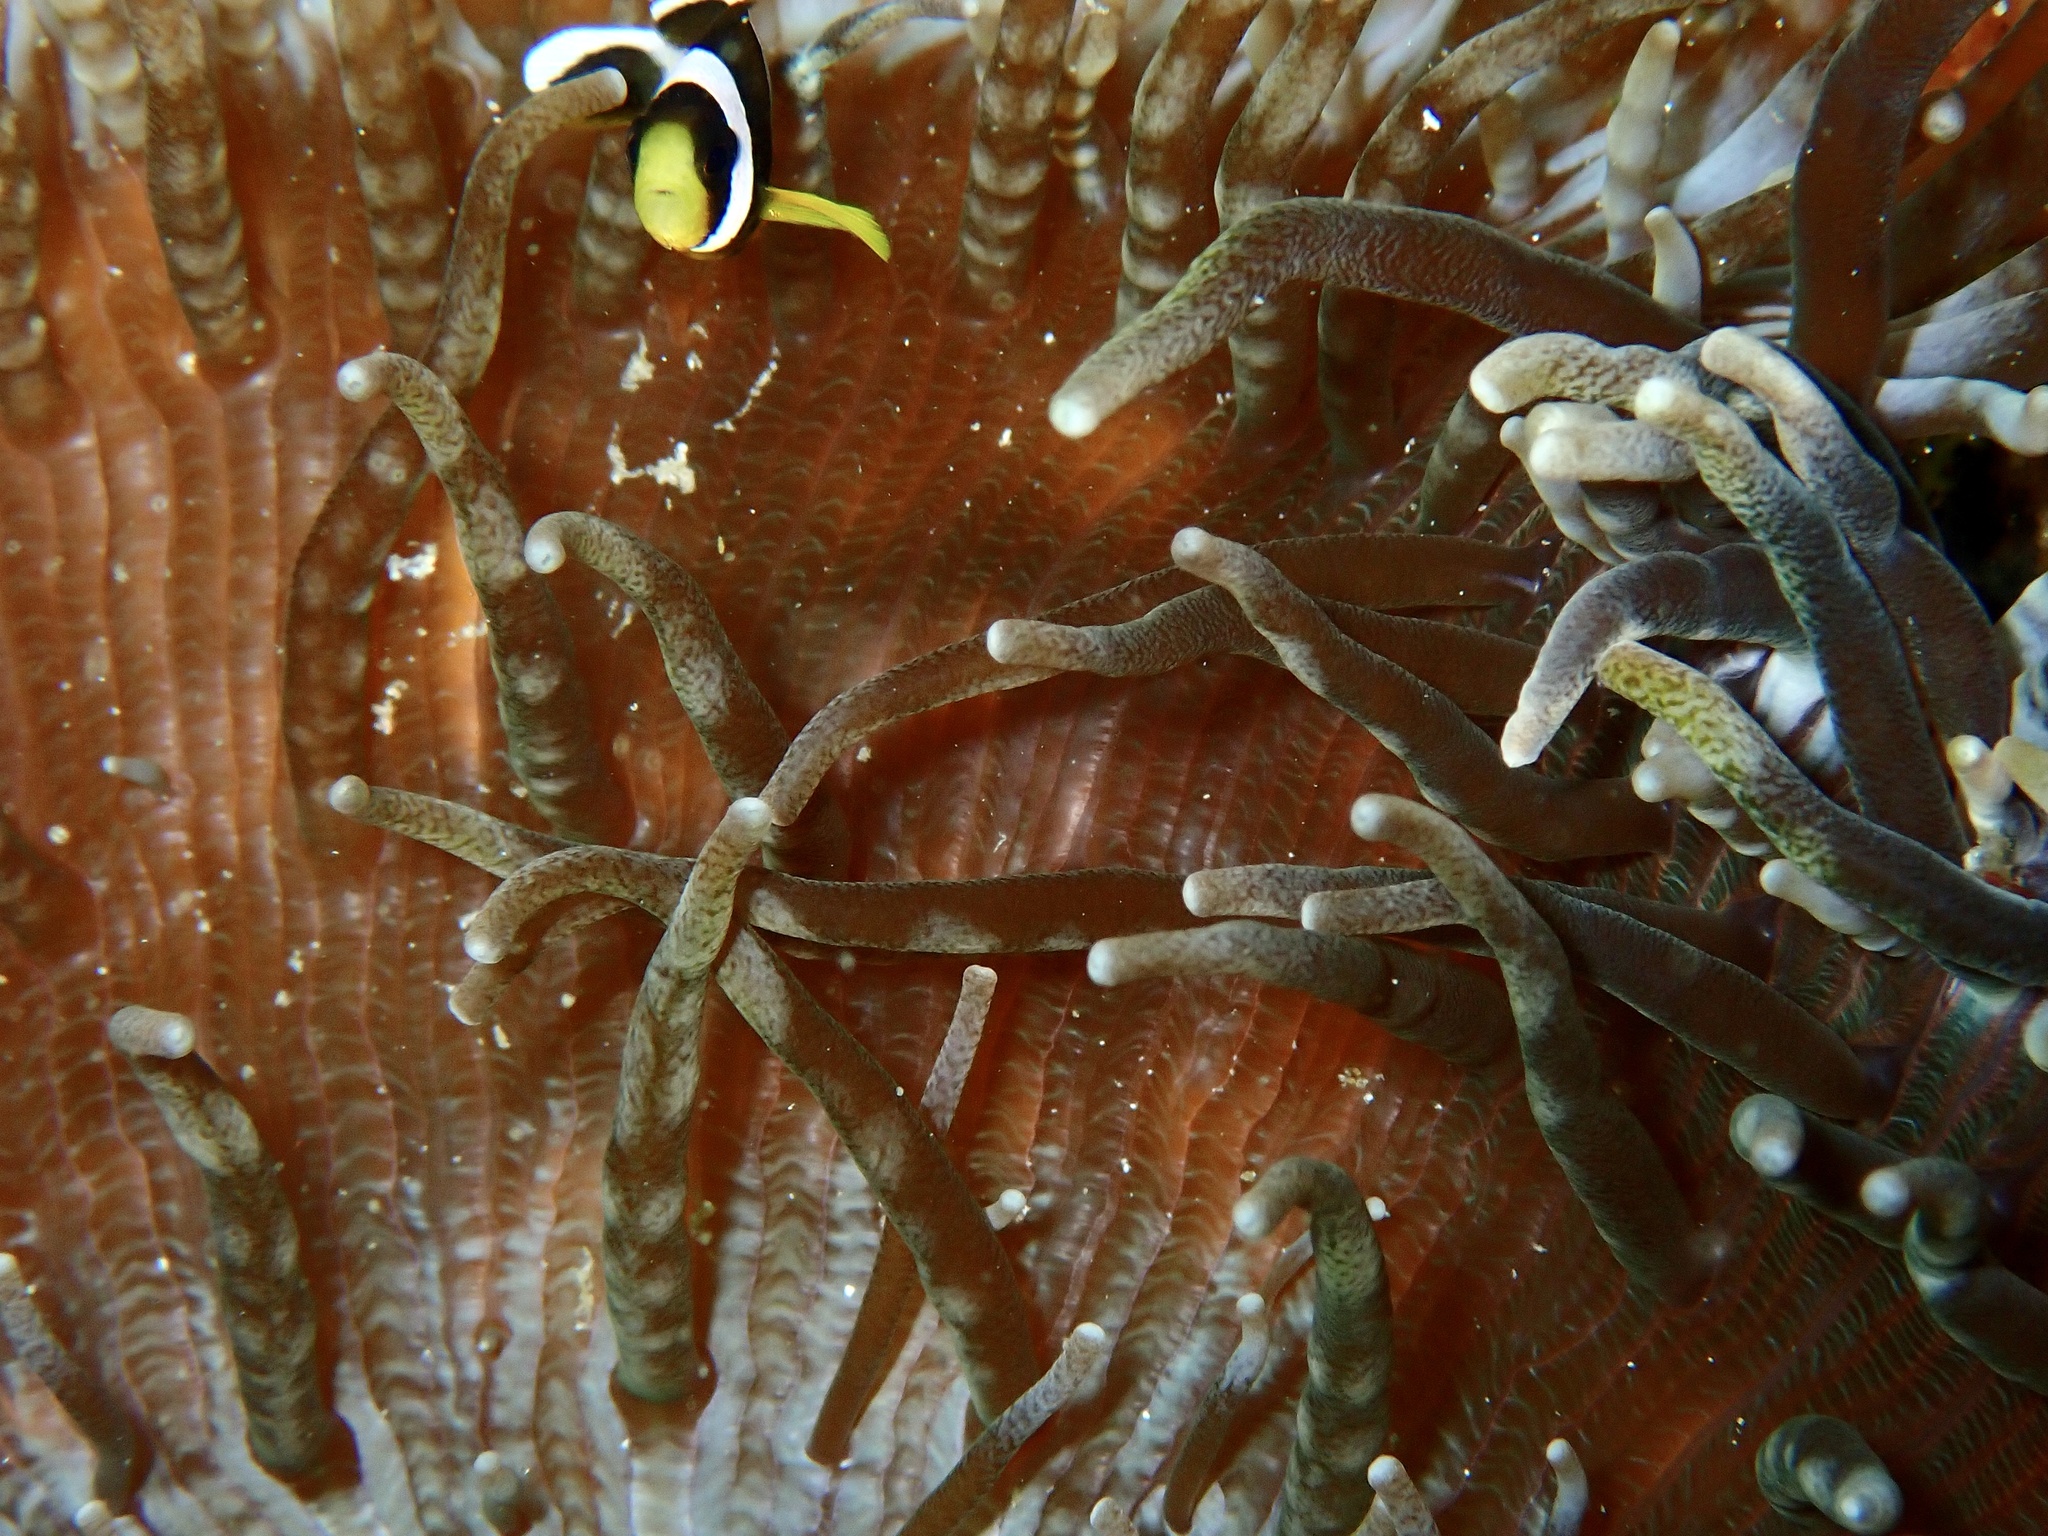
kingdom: Animalia
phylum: Cnidaria
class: Anthozoa
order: Actiniaria
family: Heteractidae
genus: Heteractis
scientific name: Heteractis aurora
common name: Beaded sea anemone
